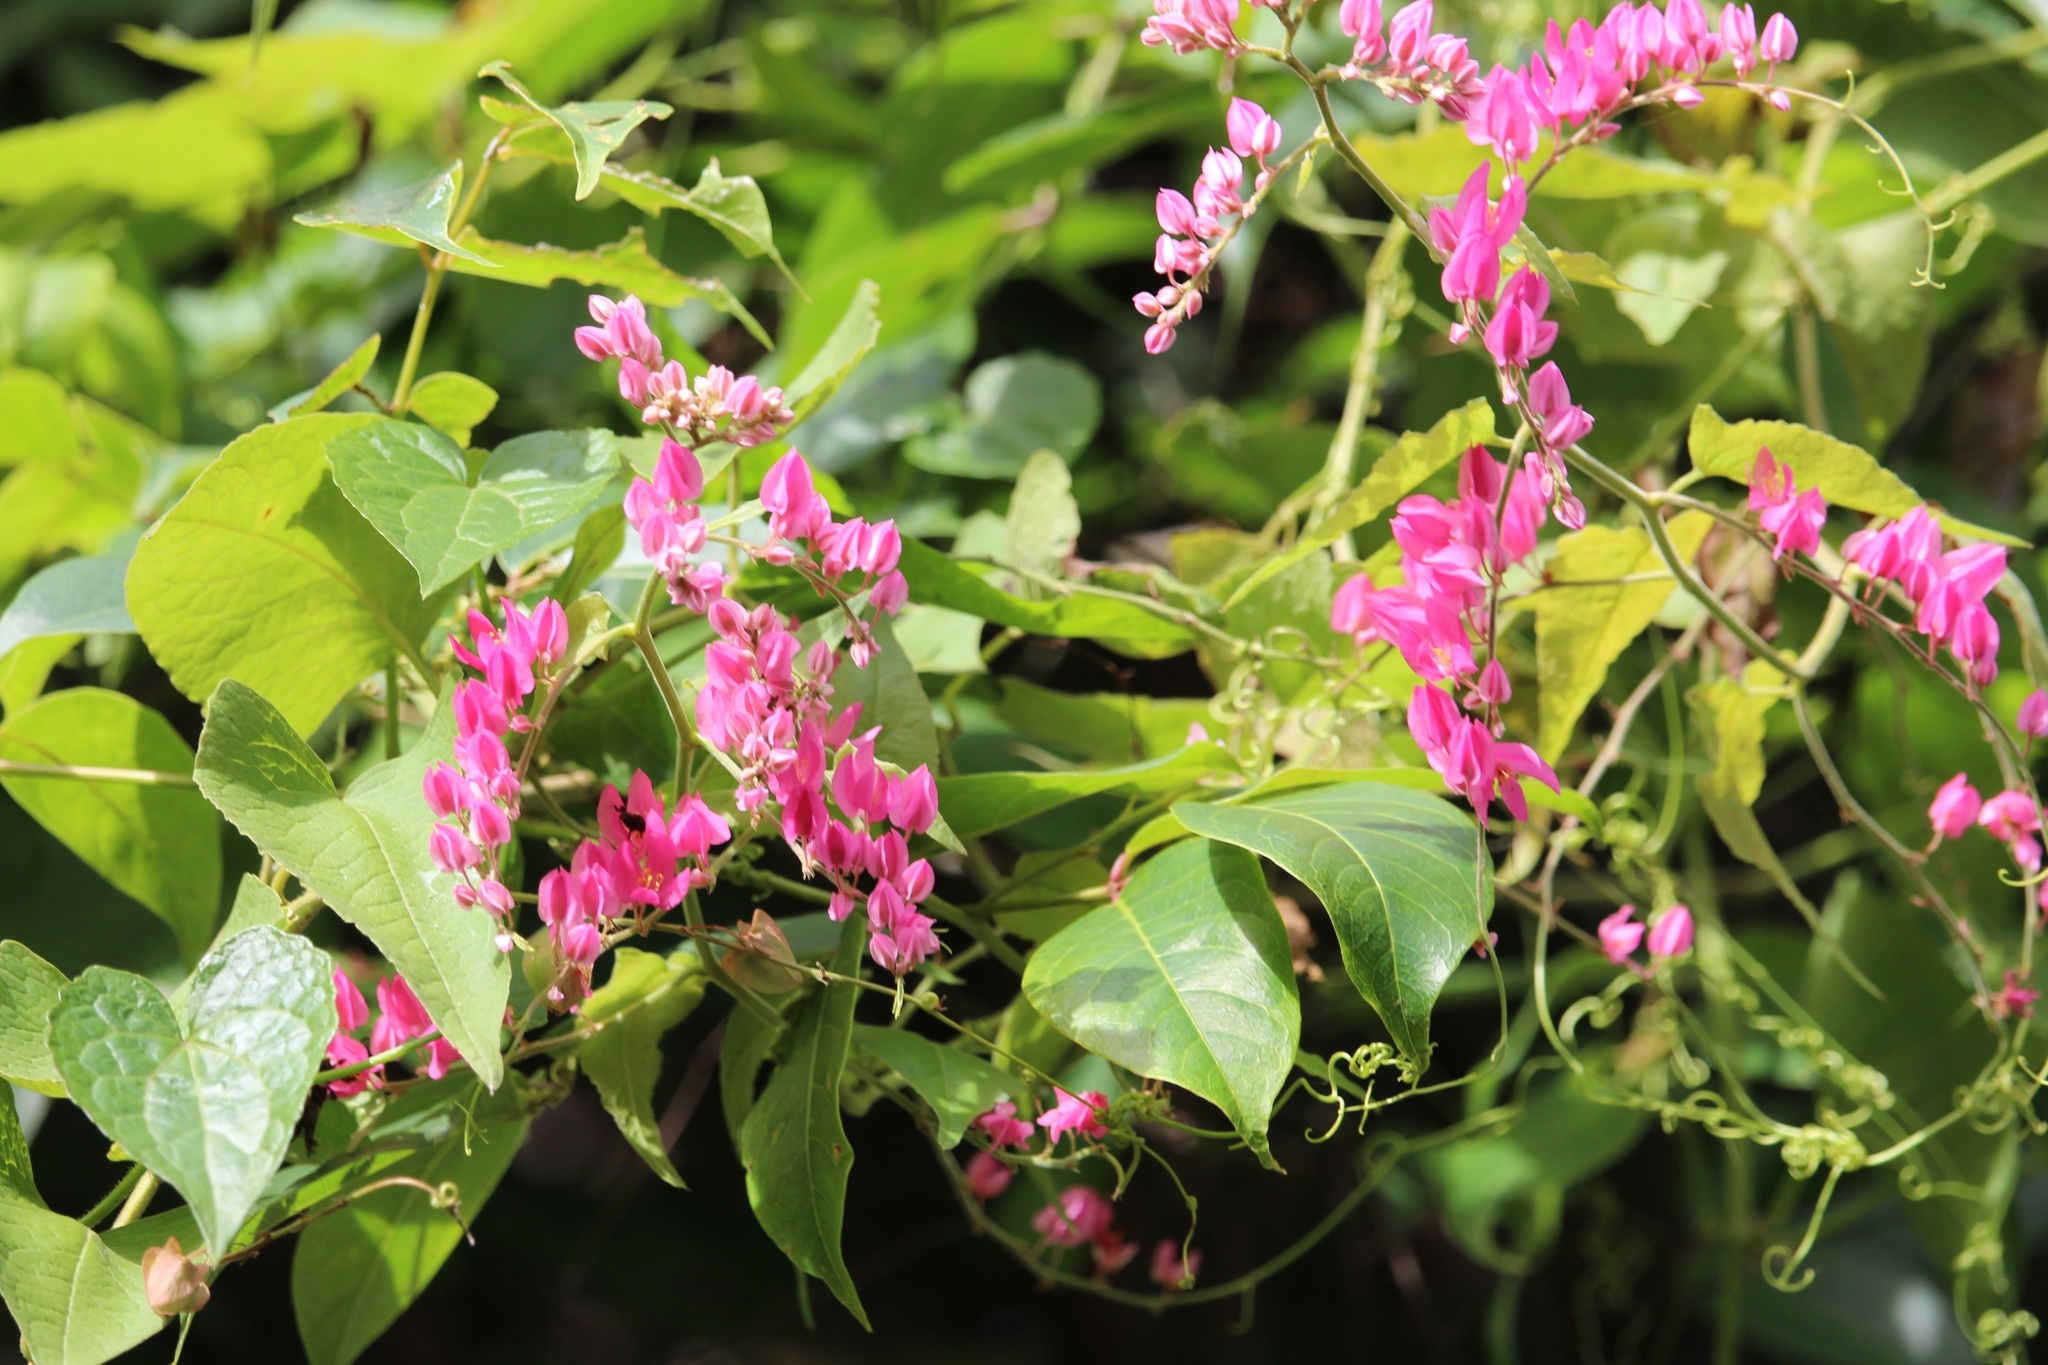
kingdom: Plantae
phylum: Tracheophyta
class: Magnoliopsida
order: Caryophyllales
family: Polygonaceae
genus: Antigonon
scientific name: Antigonon leptopus
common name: Coral vine
